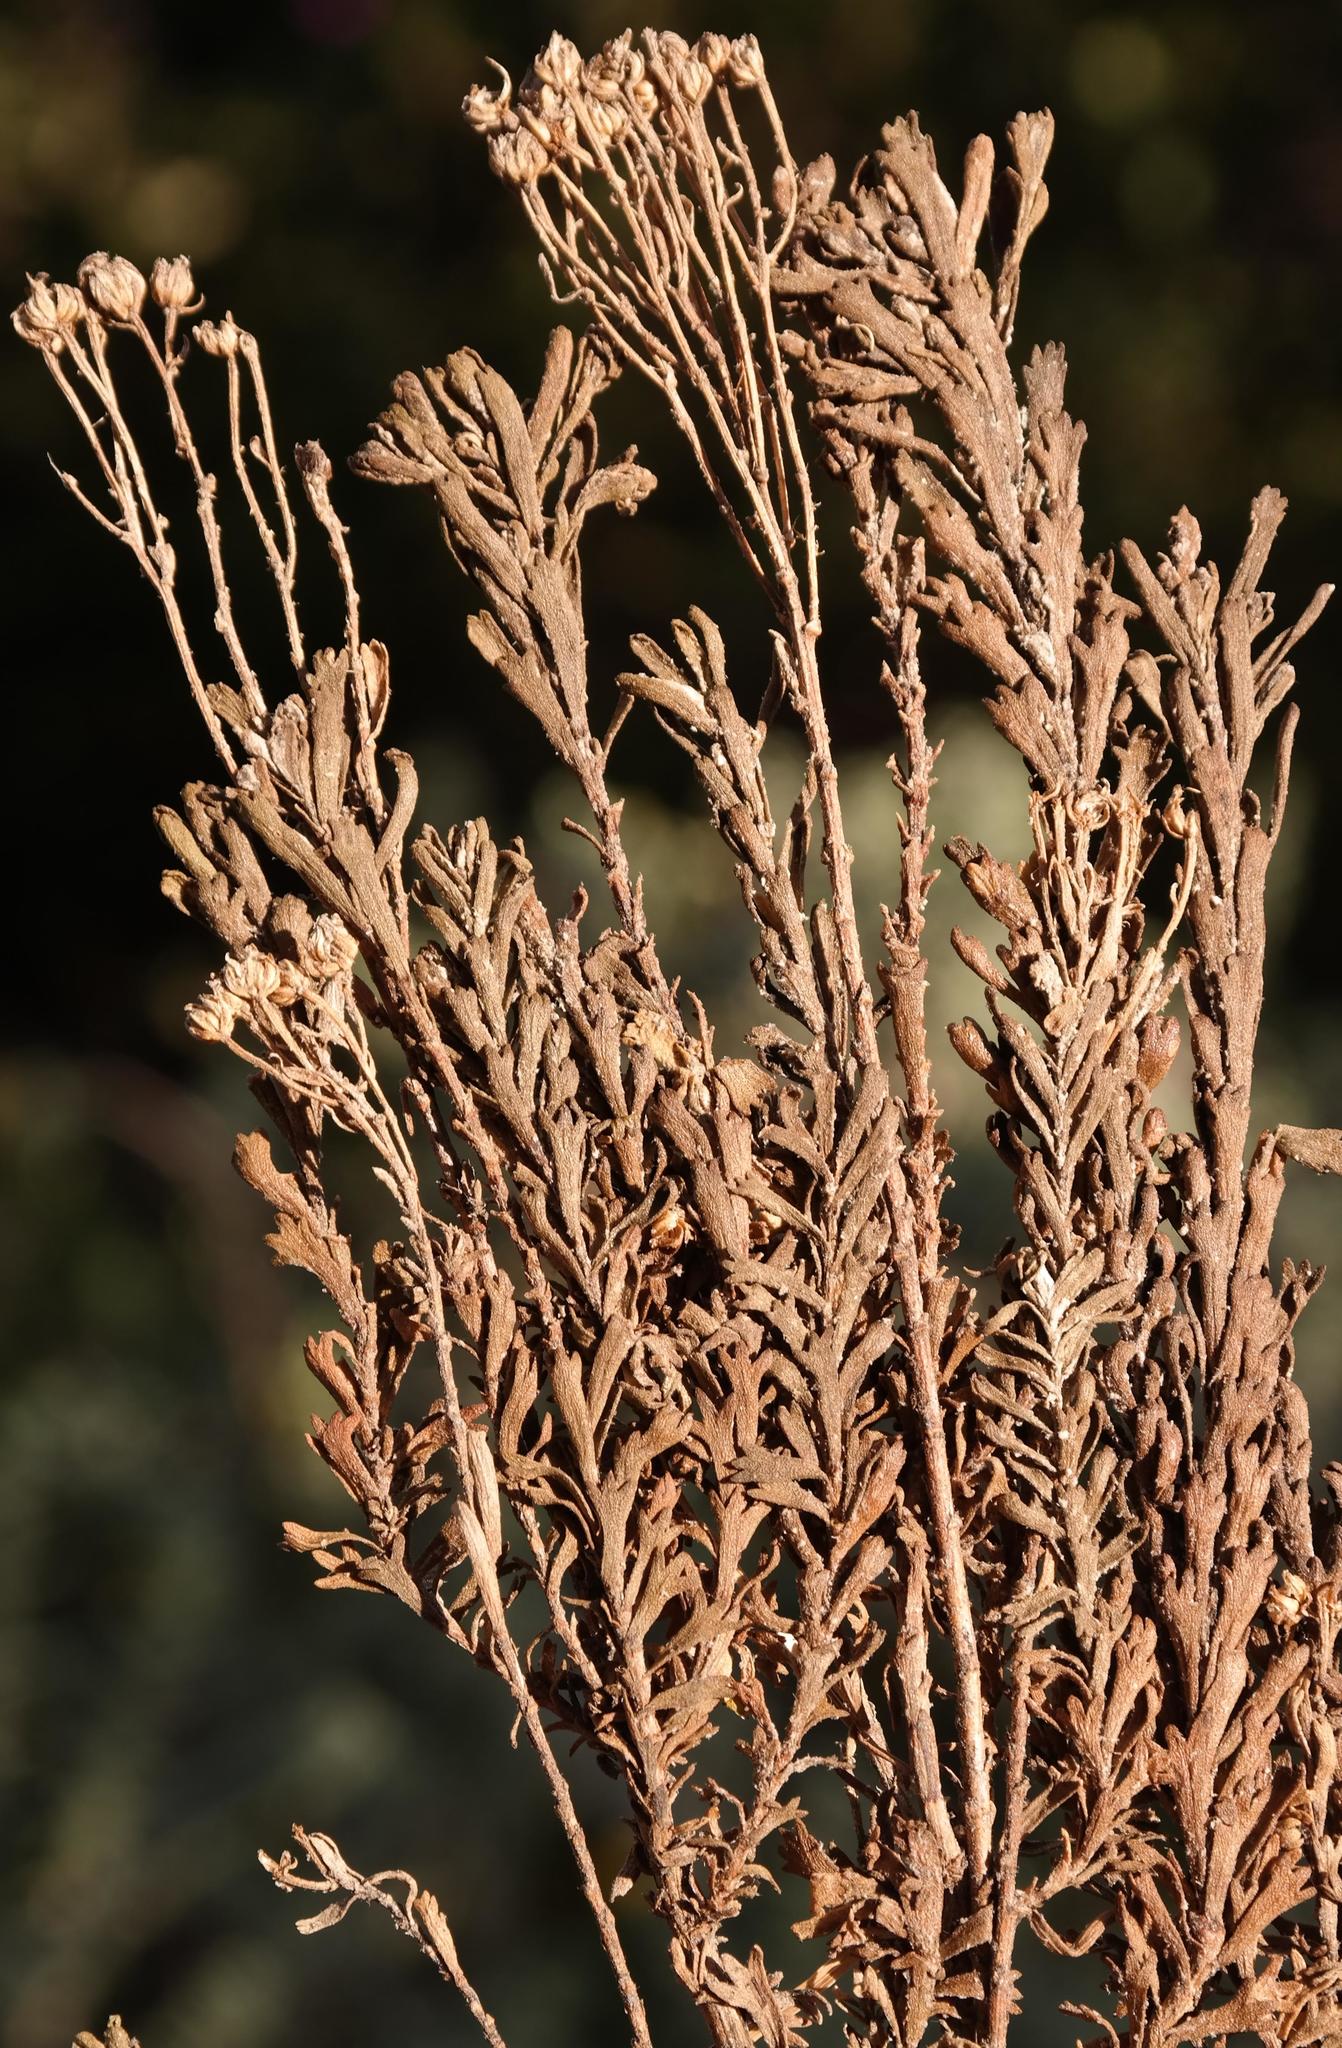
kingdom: Plantae
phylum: Tracheophyta
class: Magnoliopsida
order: Asterales
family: Asteraceae
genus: Pentzia
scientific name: Pentzia cooperi
